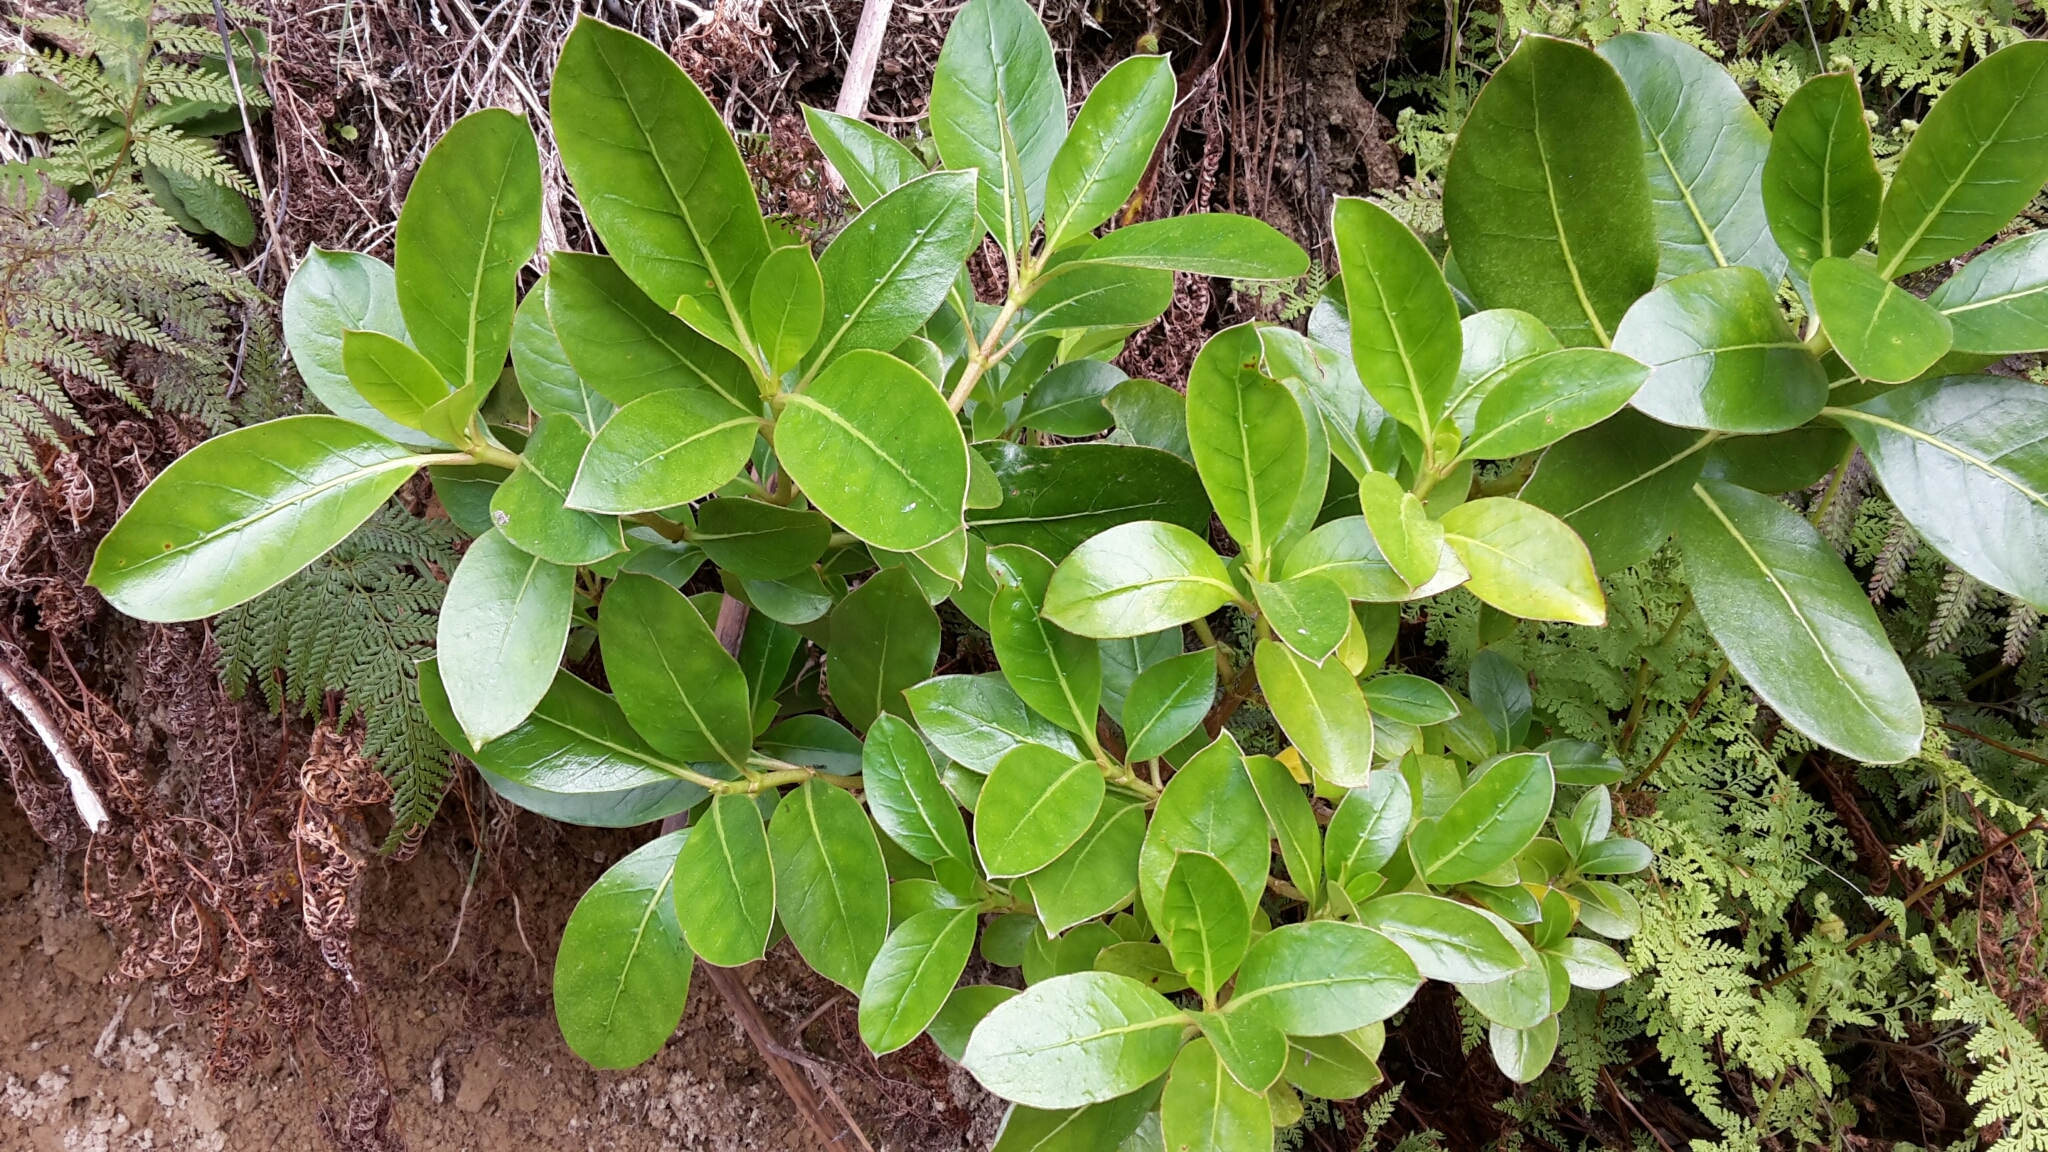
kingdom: Plantae
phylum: Tracheophyta
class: Magnoliopsida
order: Gentianales
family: Rubiaceae
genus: Coprosma
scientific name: Coprosma lucida
